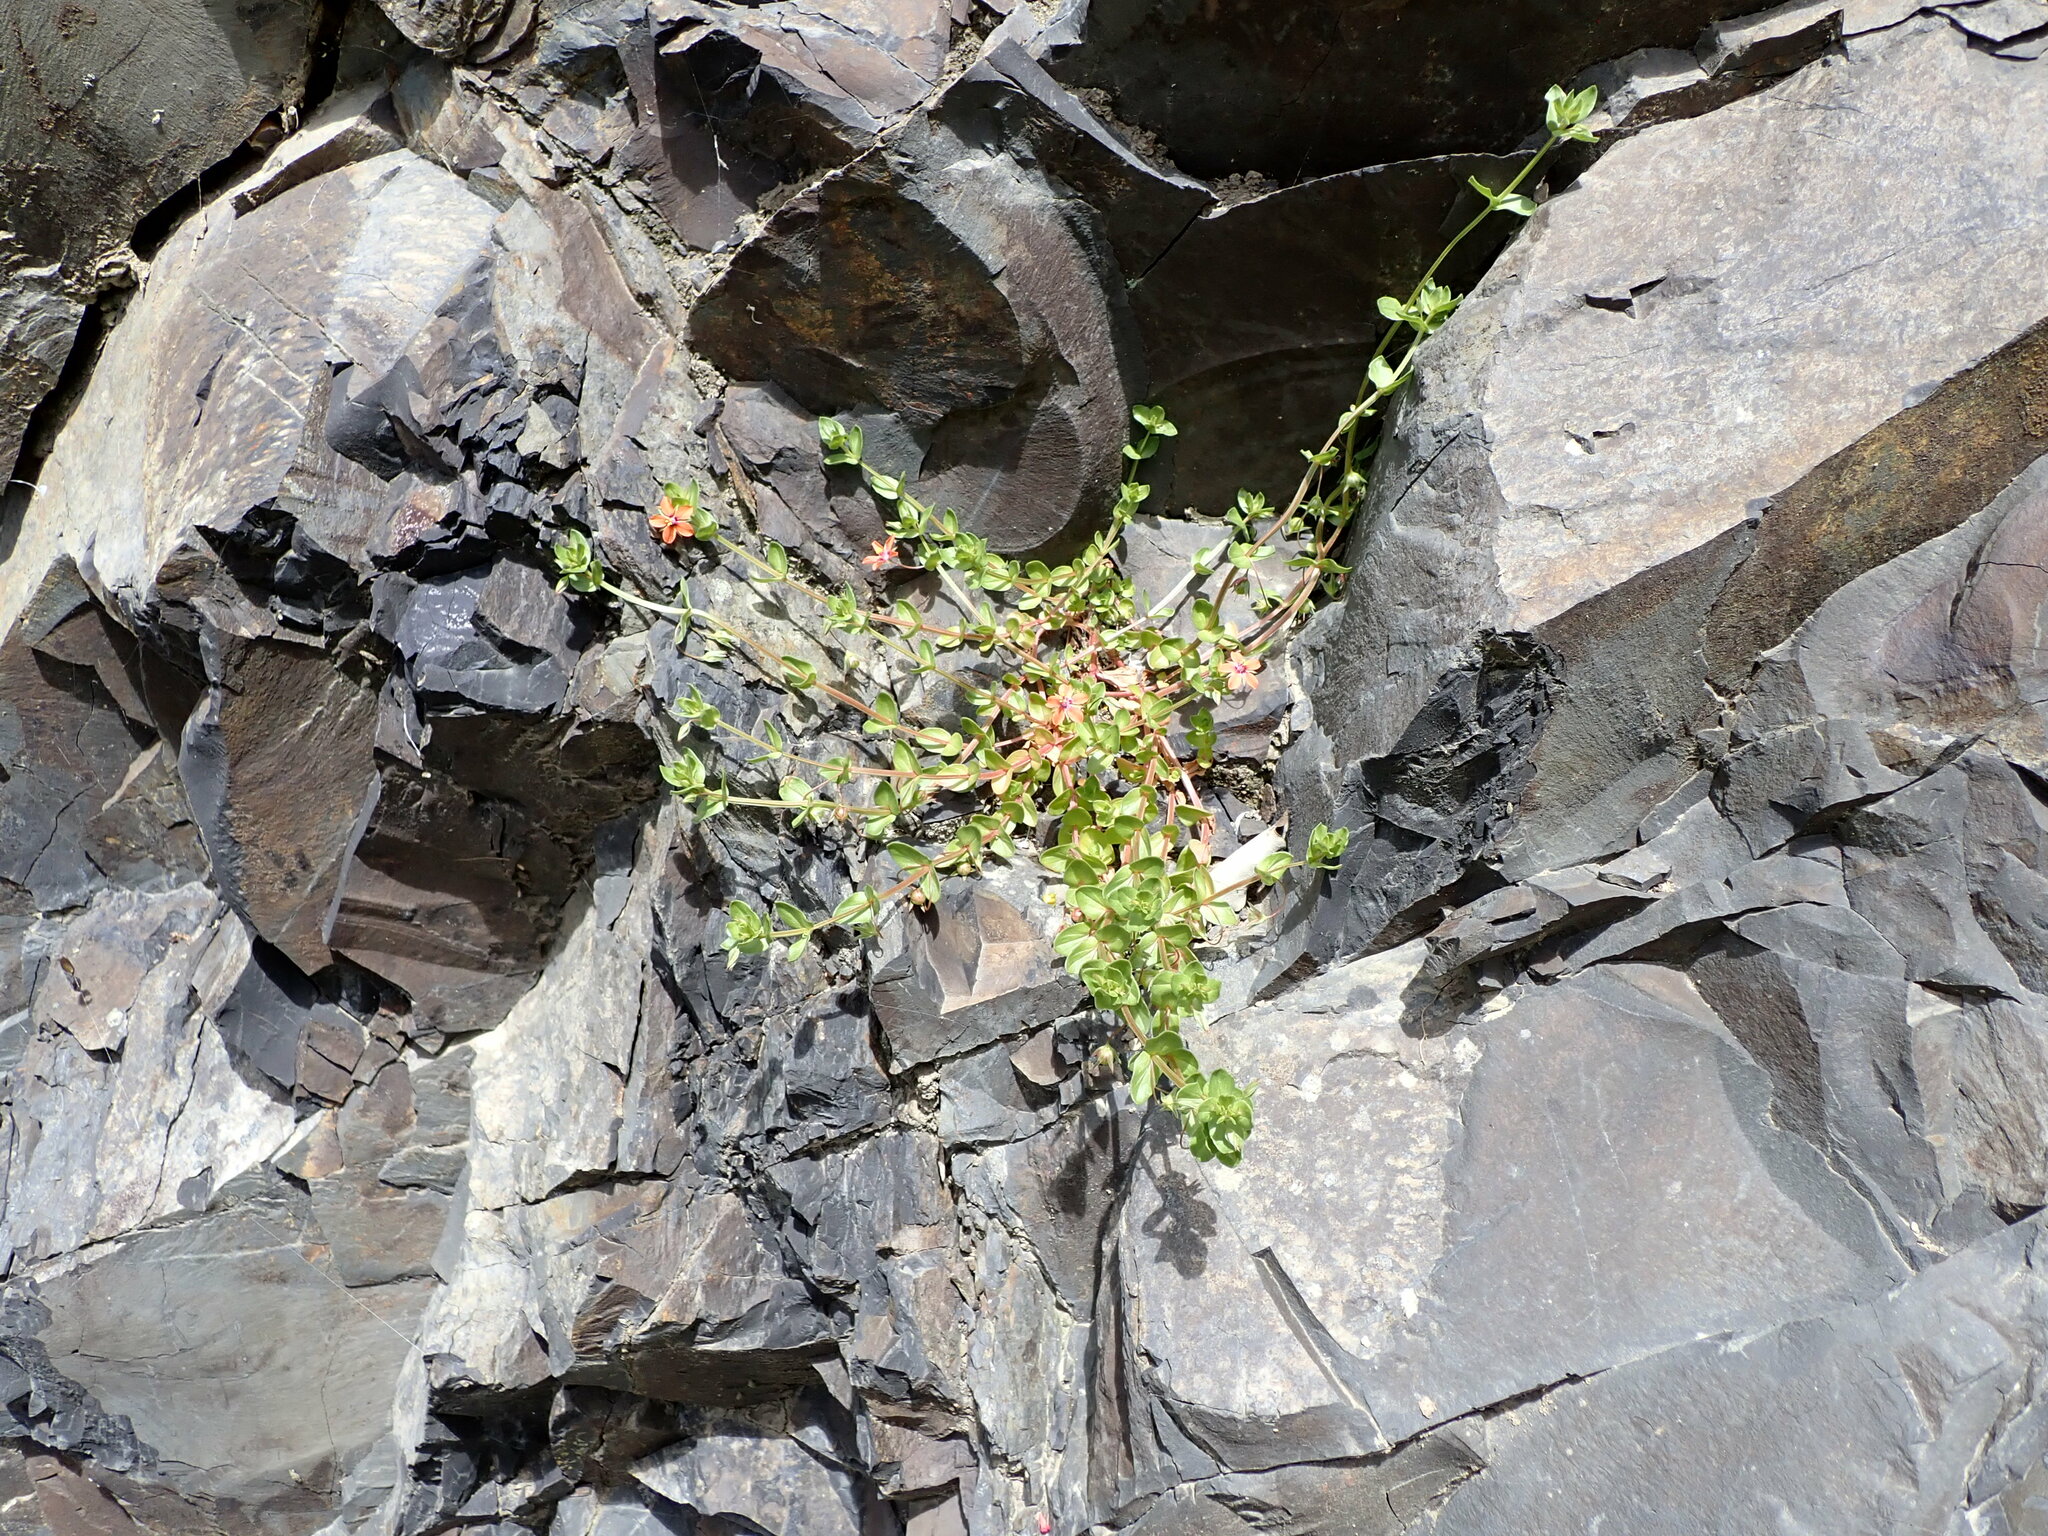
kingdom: Plantae
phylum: Tracheophyta
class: Magnoliopsida
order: Ericales
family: Primulaceae
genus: Lysimachia
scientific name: Lysimachia arvensis
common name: Scarlet pimpernel
